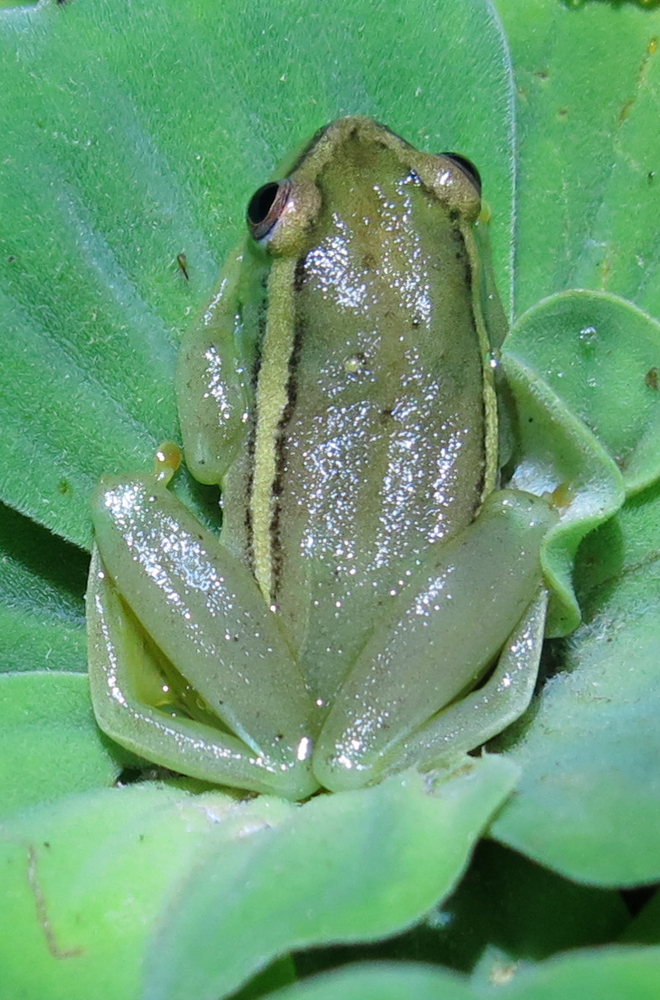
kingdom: Animalia
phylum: Chordata
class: Amphibia
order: Anura
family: Hyperoliidae
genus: Hyperolius
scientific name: Hyperolius argus
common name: Argus reed frog
